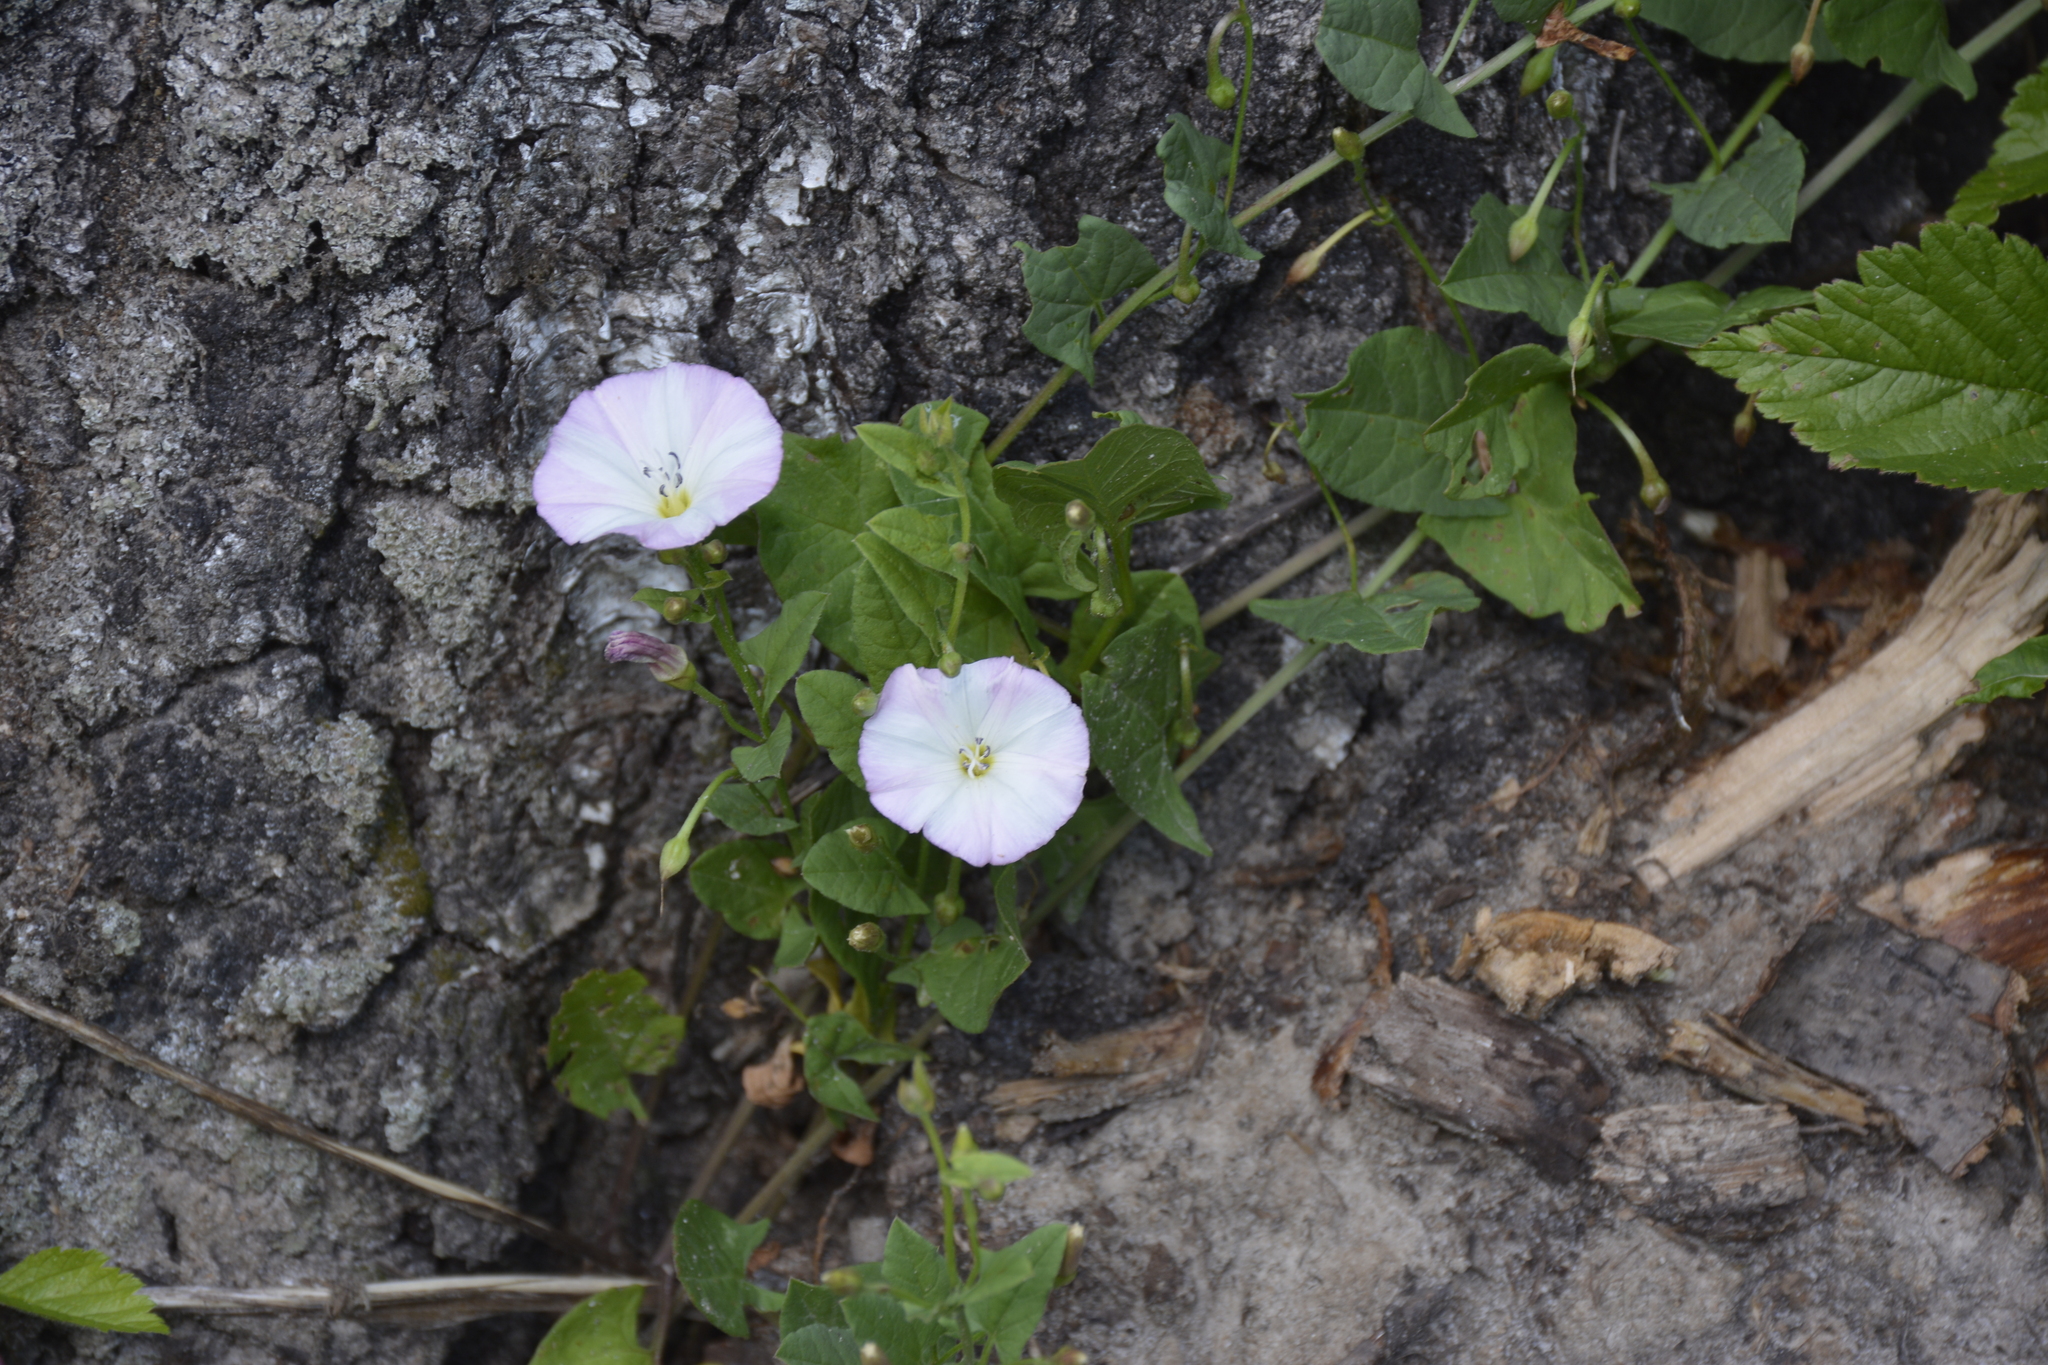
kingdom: Plantae
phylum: Tracheophyta
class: Magnoliopsida
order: Solanales
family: Convolvulaceae
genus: Convolvulus
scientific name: Convolvulus arvensis
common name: Field bindweed
